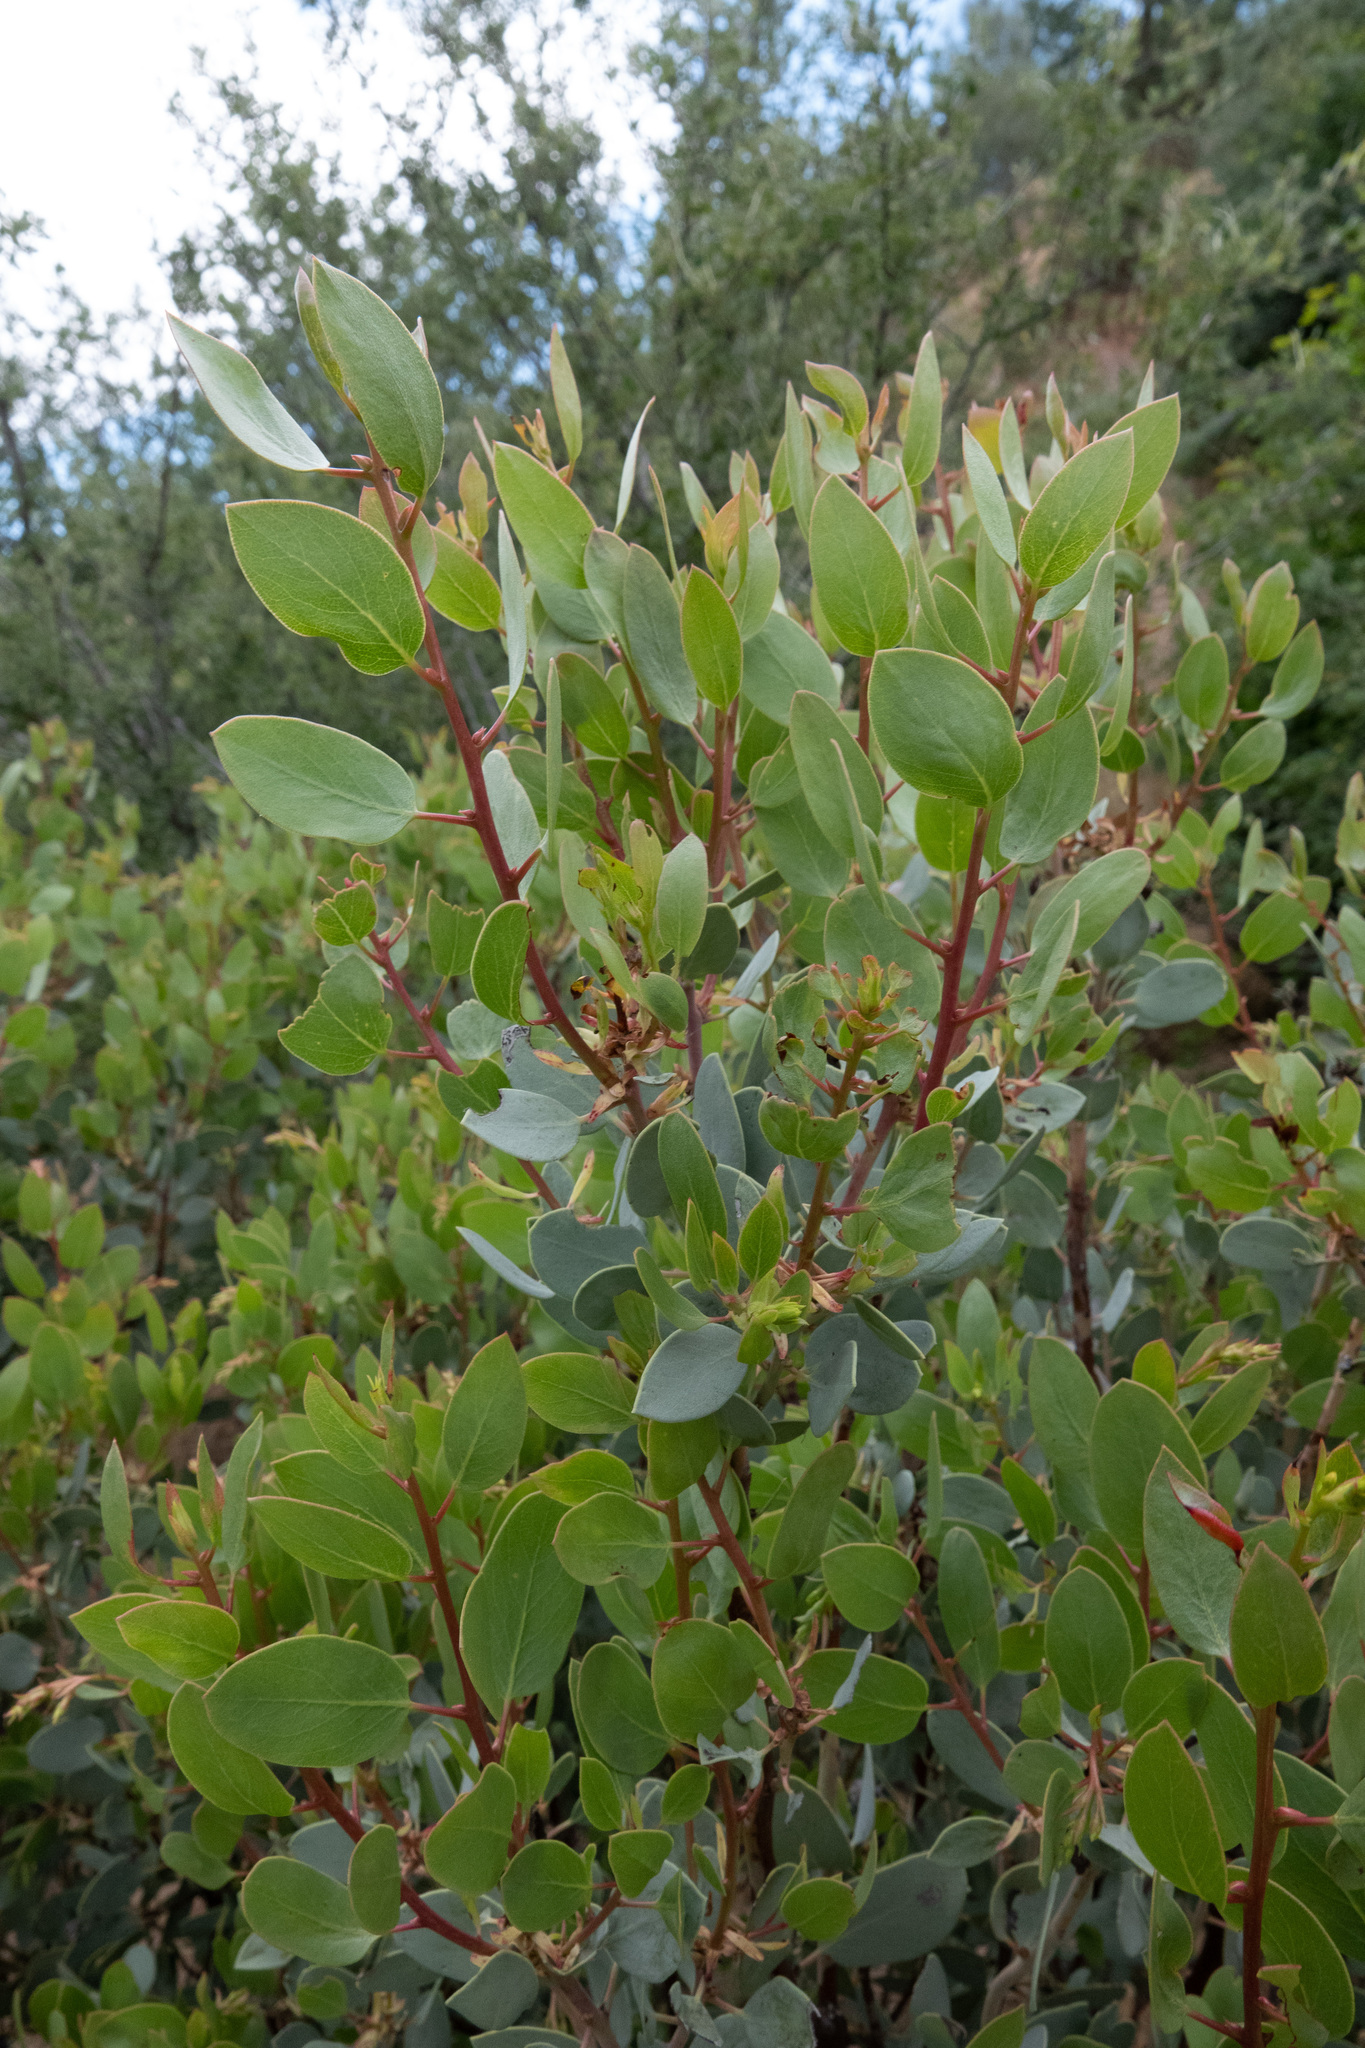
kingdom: Plantae
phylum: Tracheophyta
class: Magnoliopsida
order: Ericales
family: Ericaceae
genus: Arctostaphylos
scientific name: Arctostaphylos glauca
